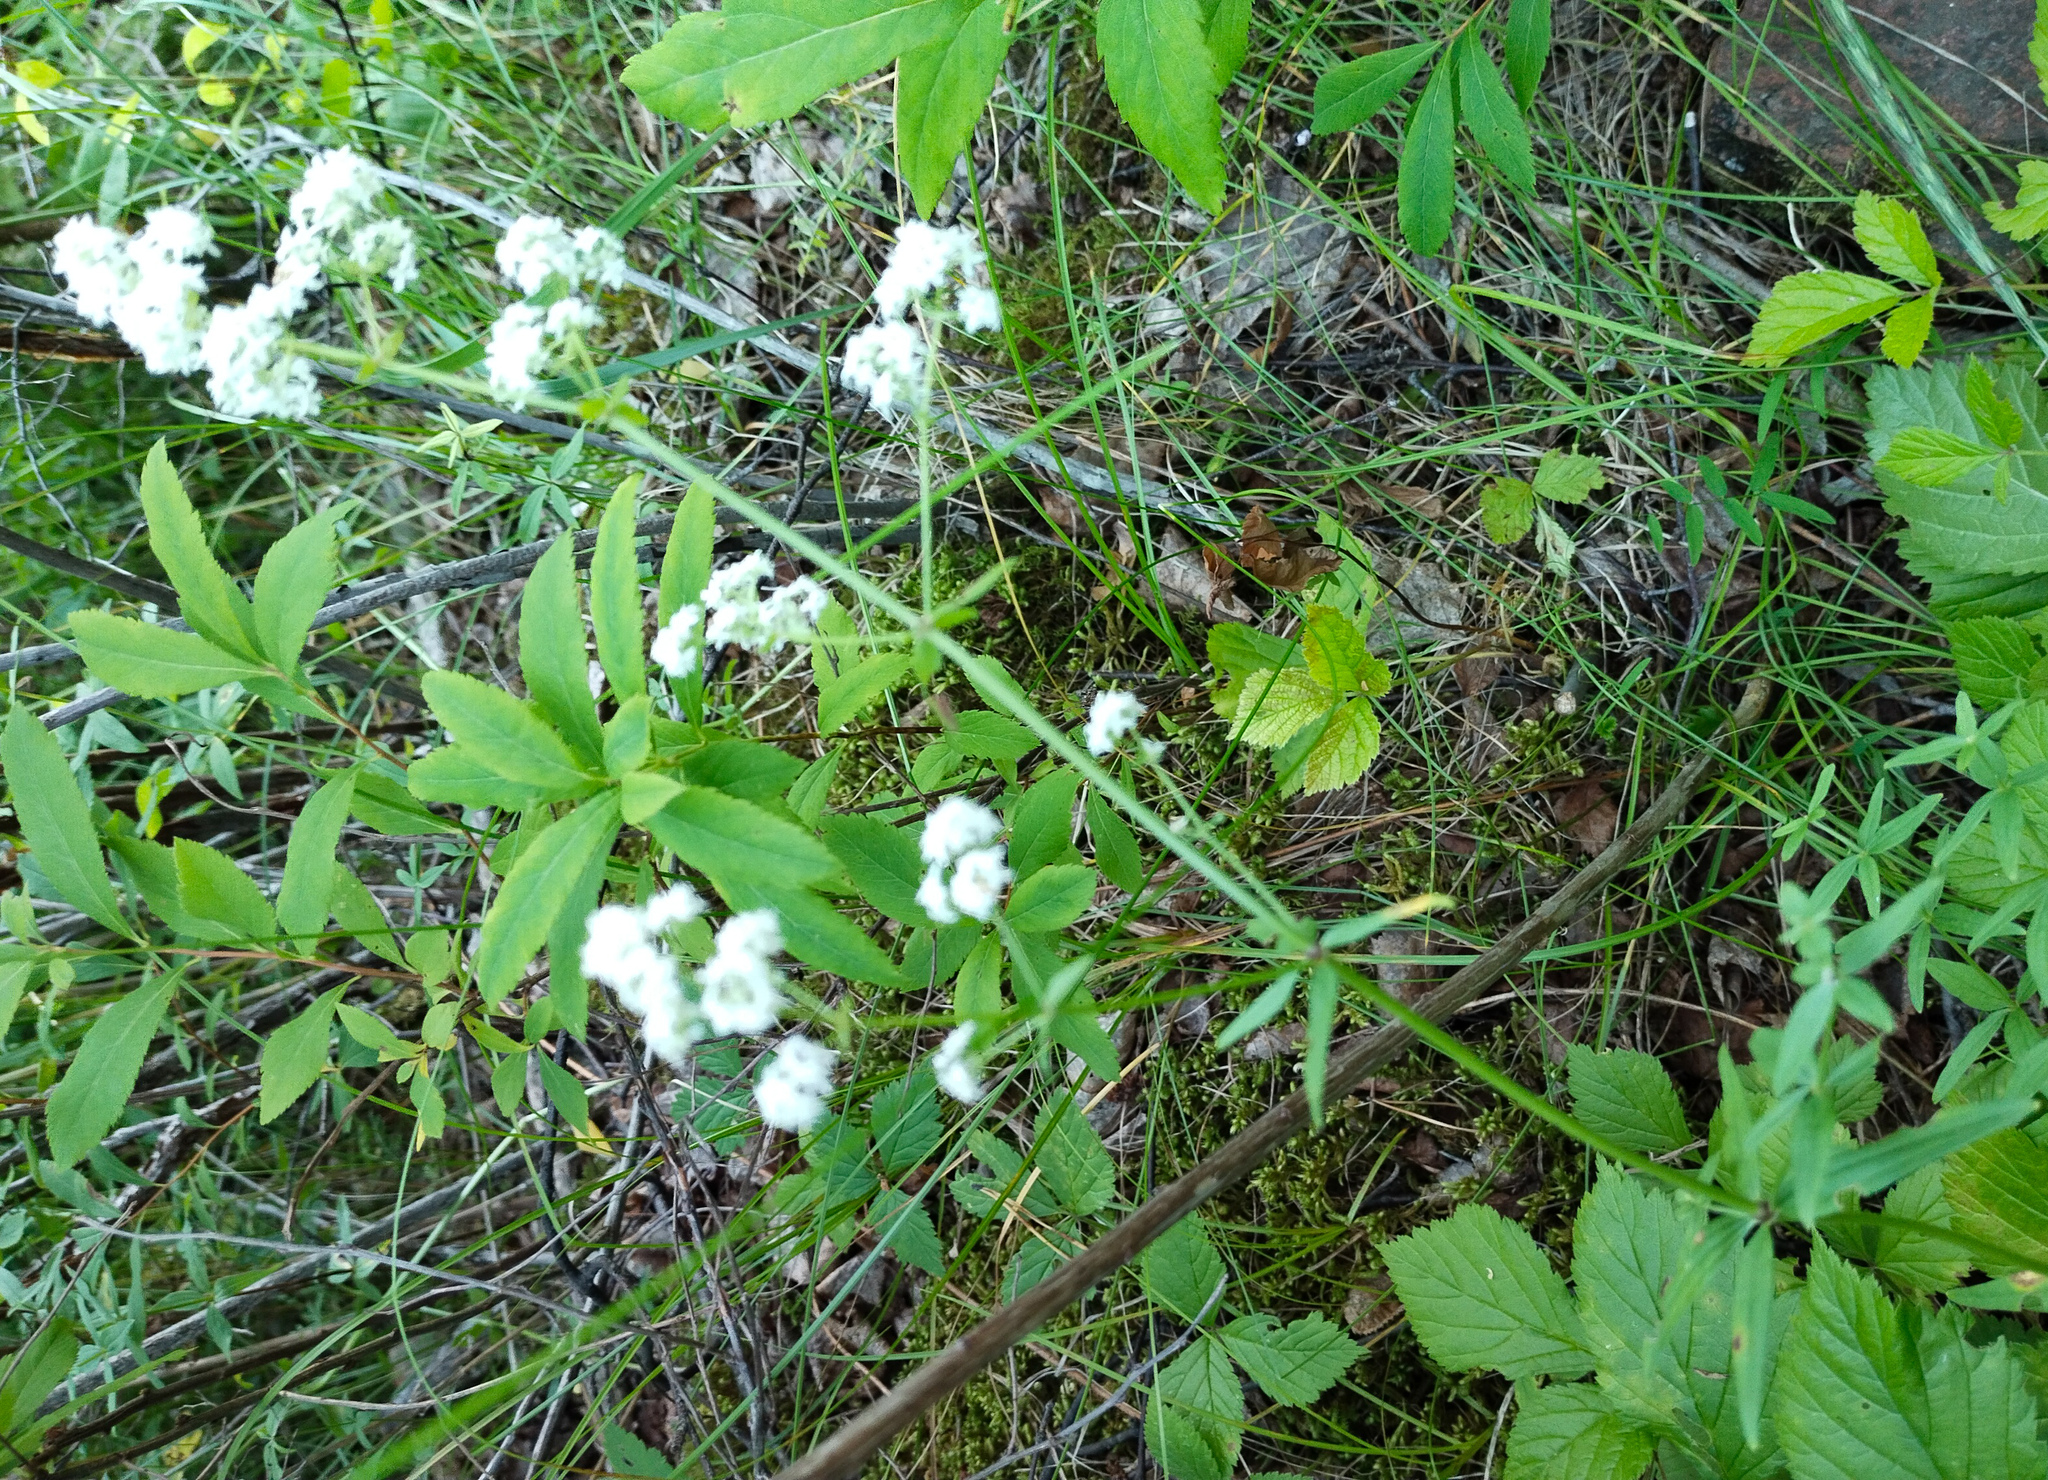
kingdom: Plantae
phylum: Tracheophyta
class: Magnoliopsida
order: Gentianales
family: Rubiaceae
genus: Galium
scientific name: Galium boreale
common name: Northern bedstraw
